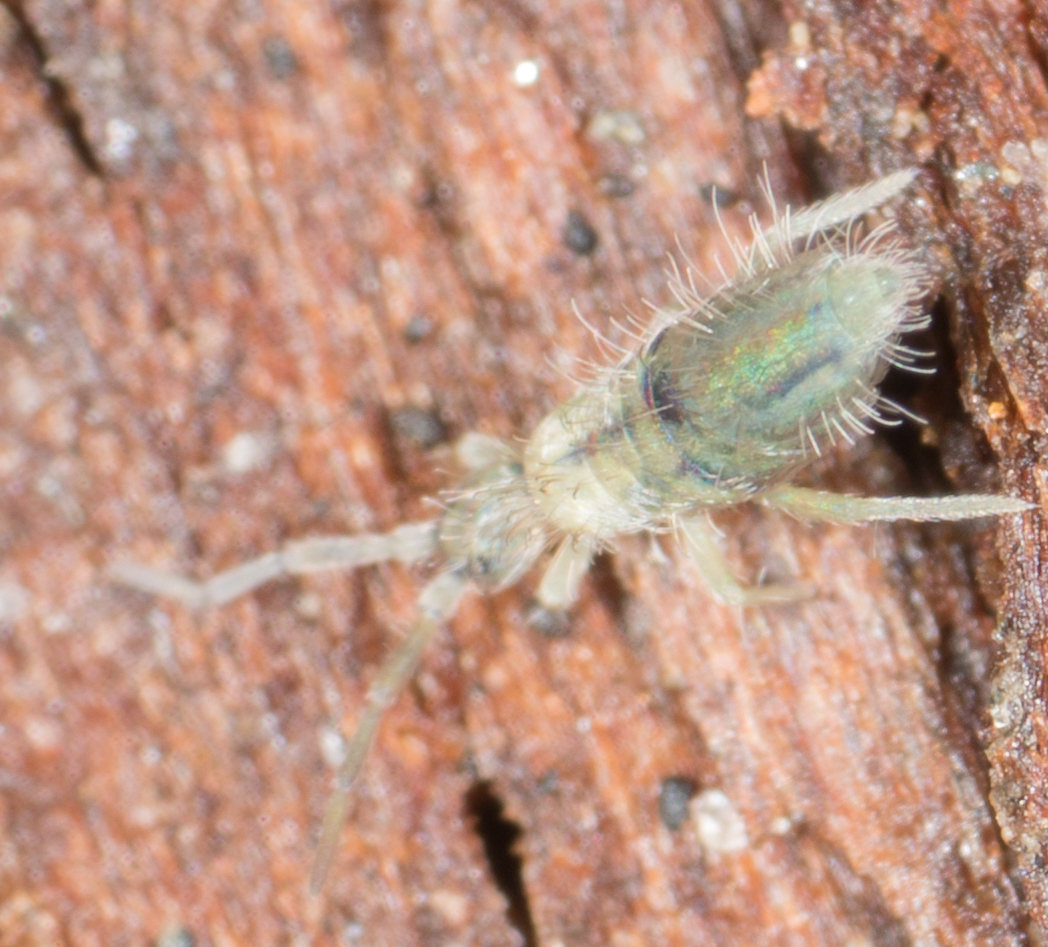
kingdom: Animalia
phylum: Arthropoda
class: Collembola
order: Entomobryomorpha
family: Entomobryidae
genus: Entomobrya
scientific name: Entomobrya unostrigata
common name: Springtail
